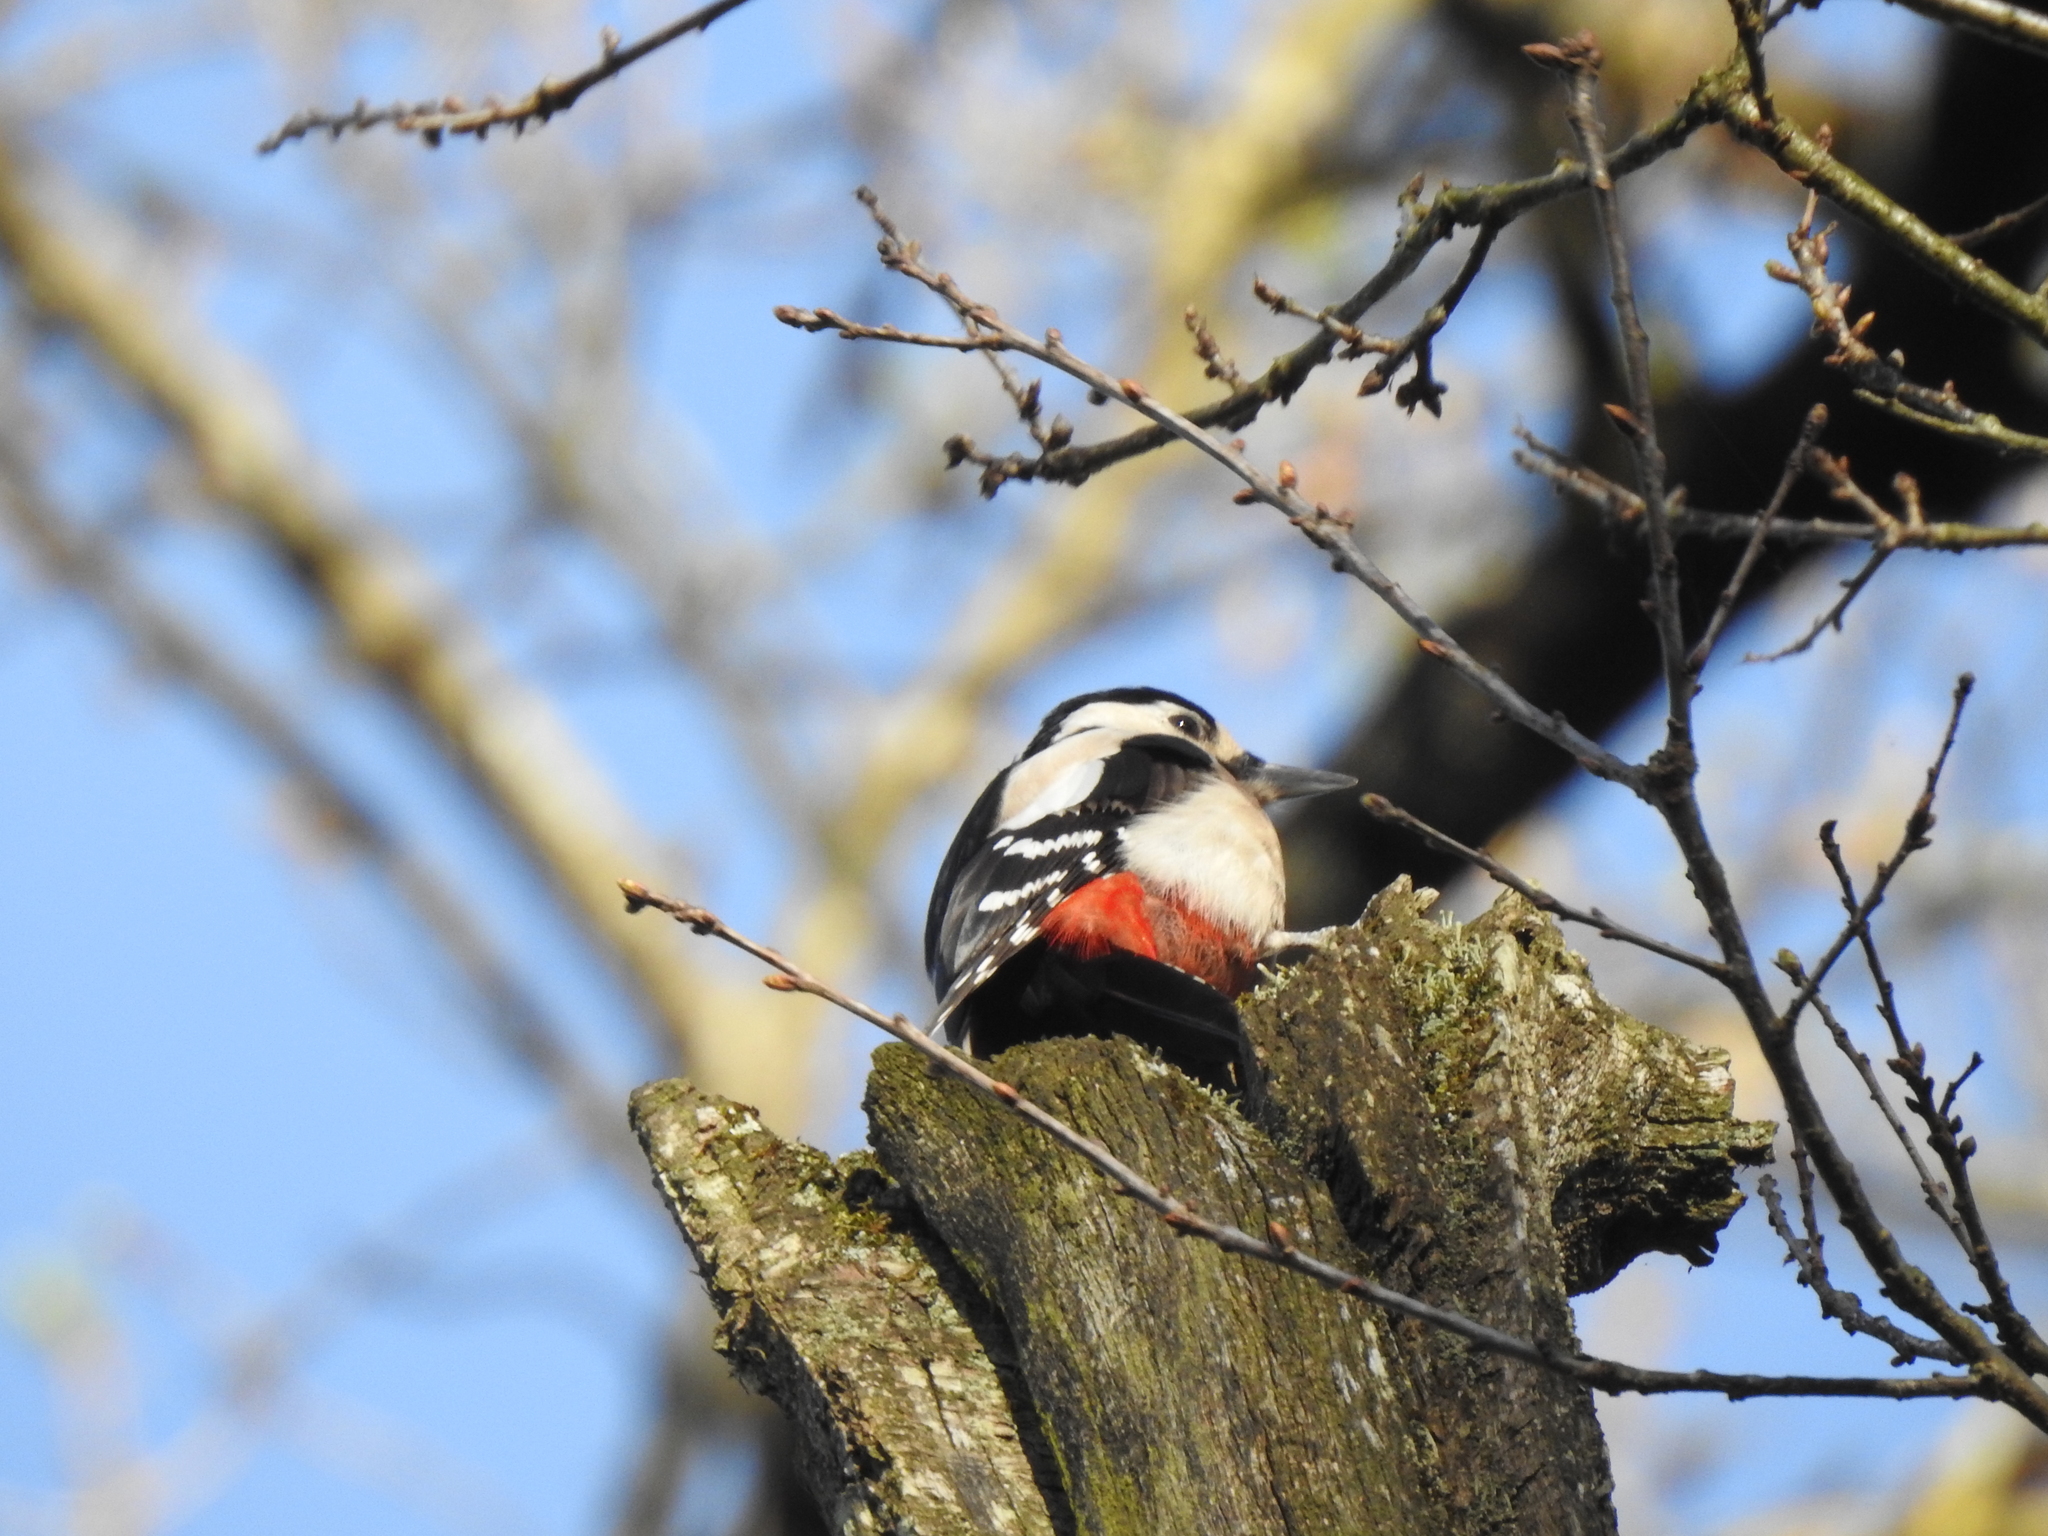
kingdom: Animalia
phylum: Chordata
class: Aves
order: Piciformes
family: Picidae
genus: Dendrocopos
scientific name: Dendrocopos major
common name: Great spotted woodpecker
